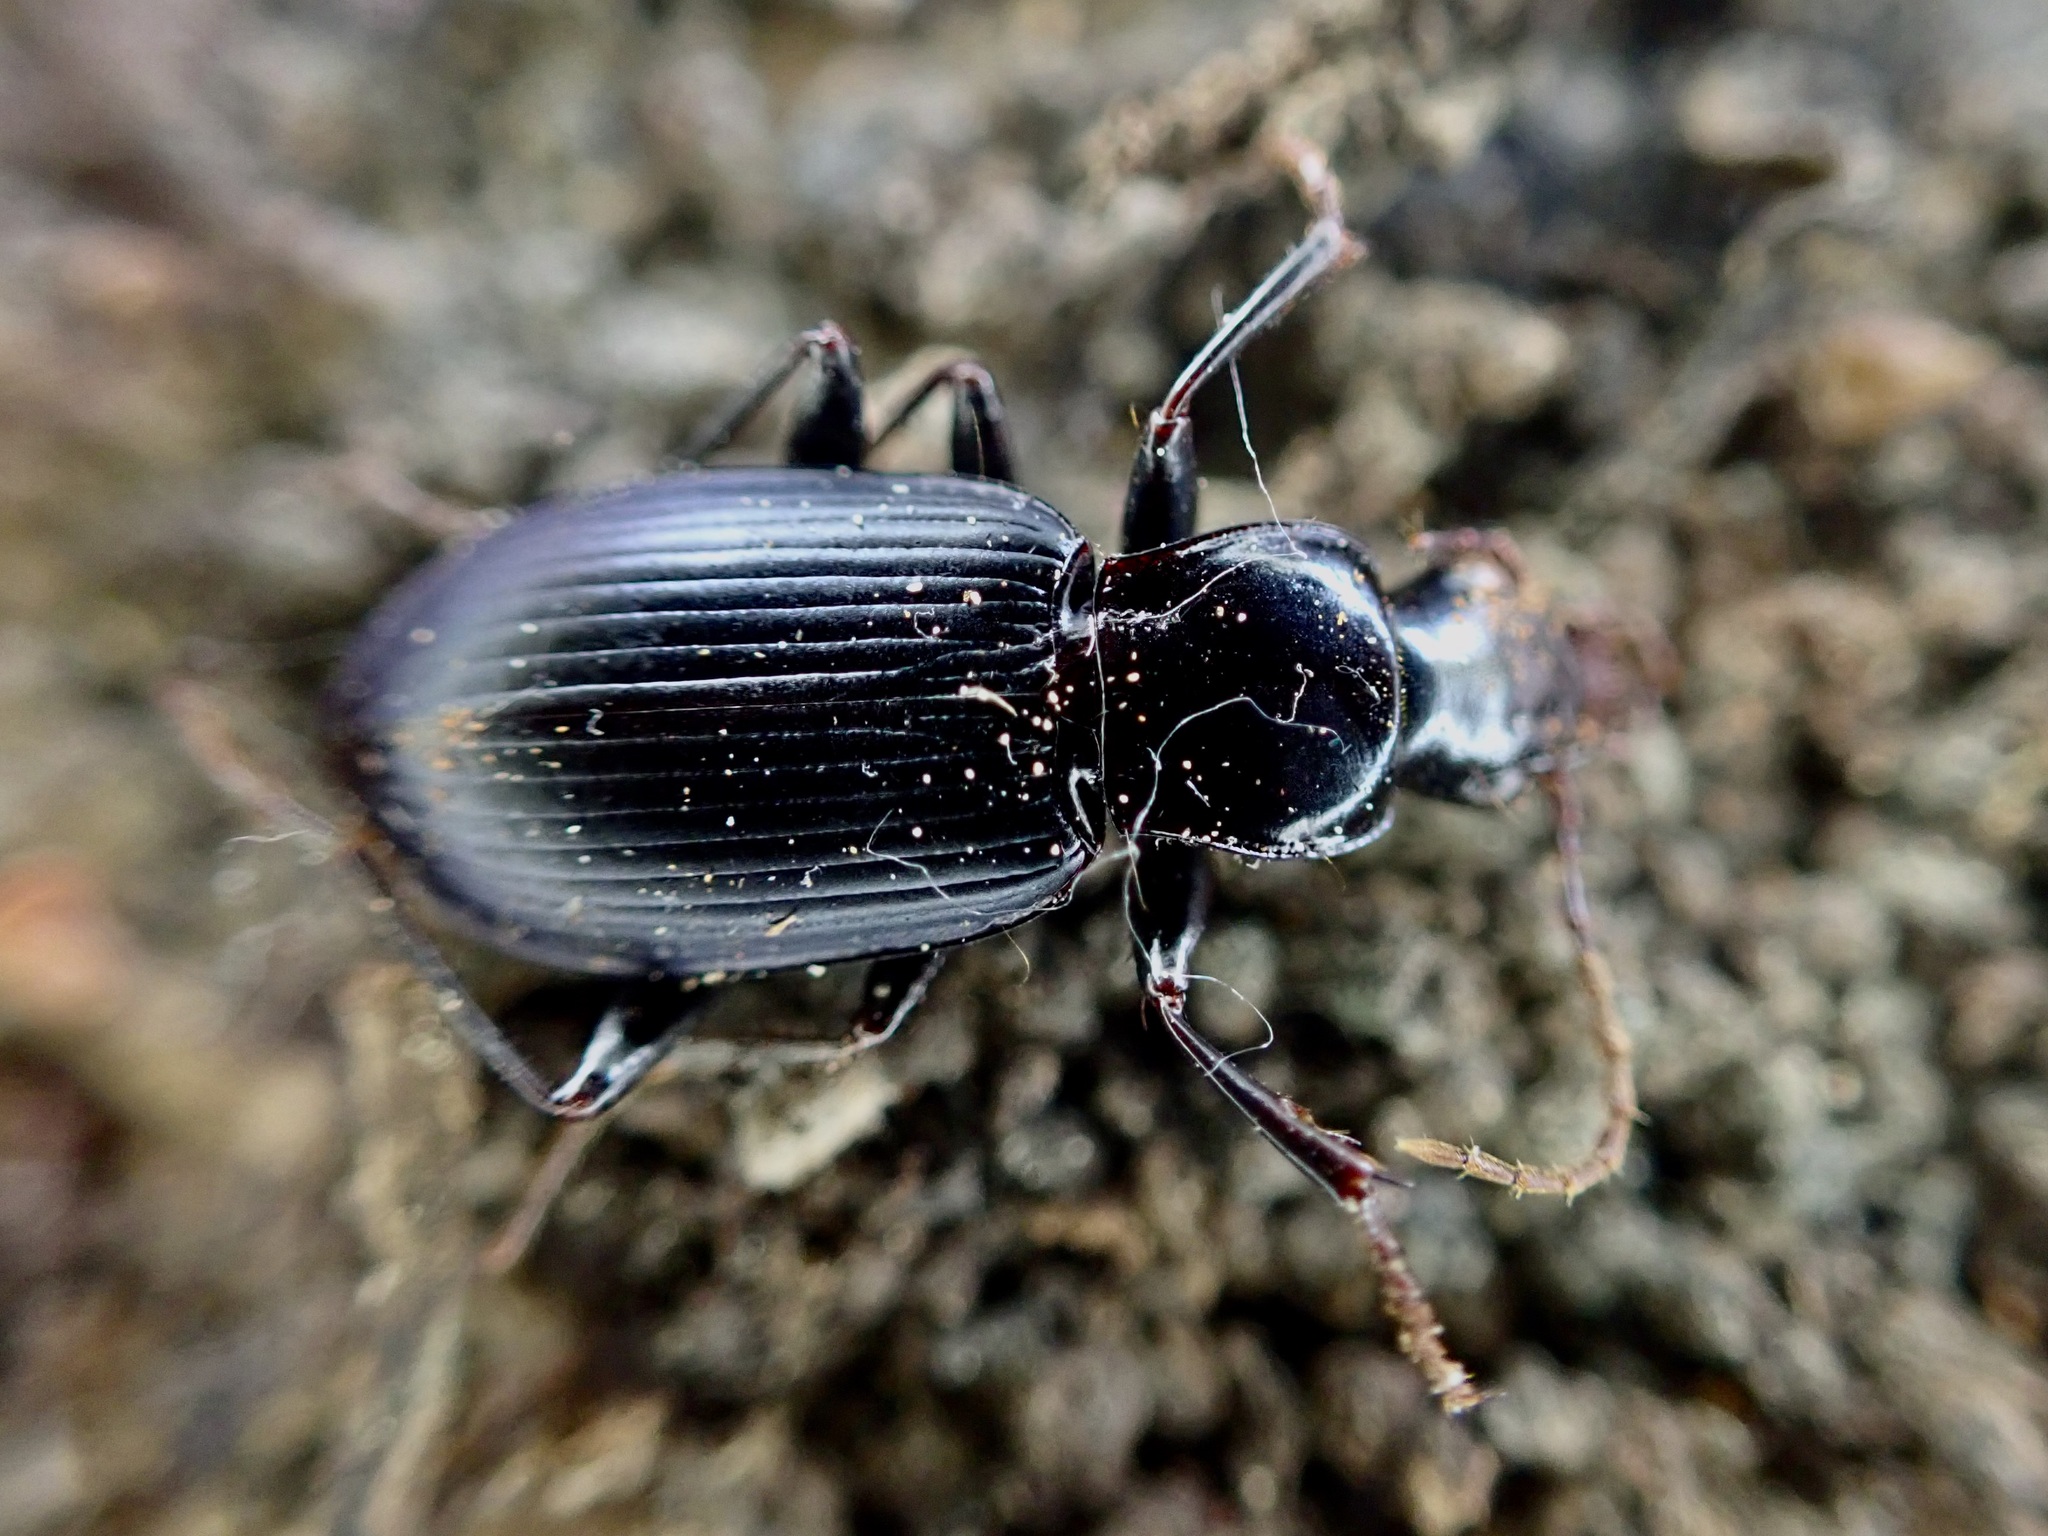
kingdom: Animalia
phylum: Arthropoda
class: Insecta
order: Coleoptera
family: Carabidae
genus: Laemostenus
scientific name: Laemostenus complanatus
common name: Cosmopolitan ground beetle
